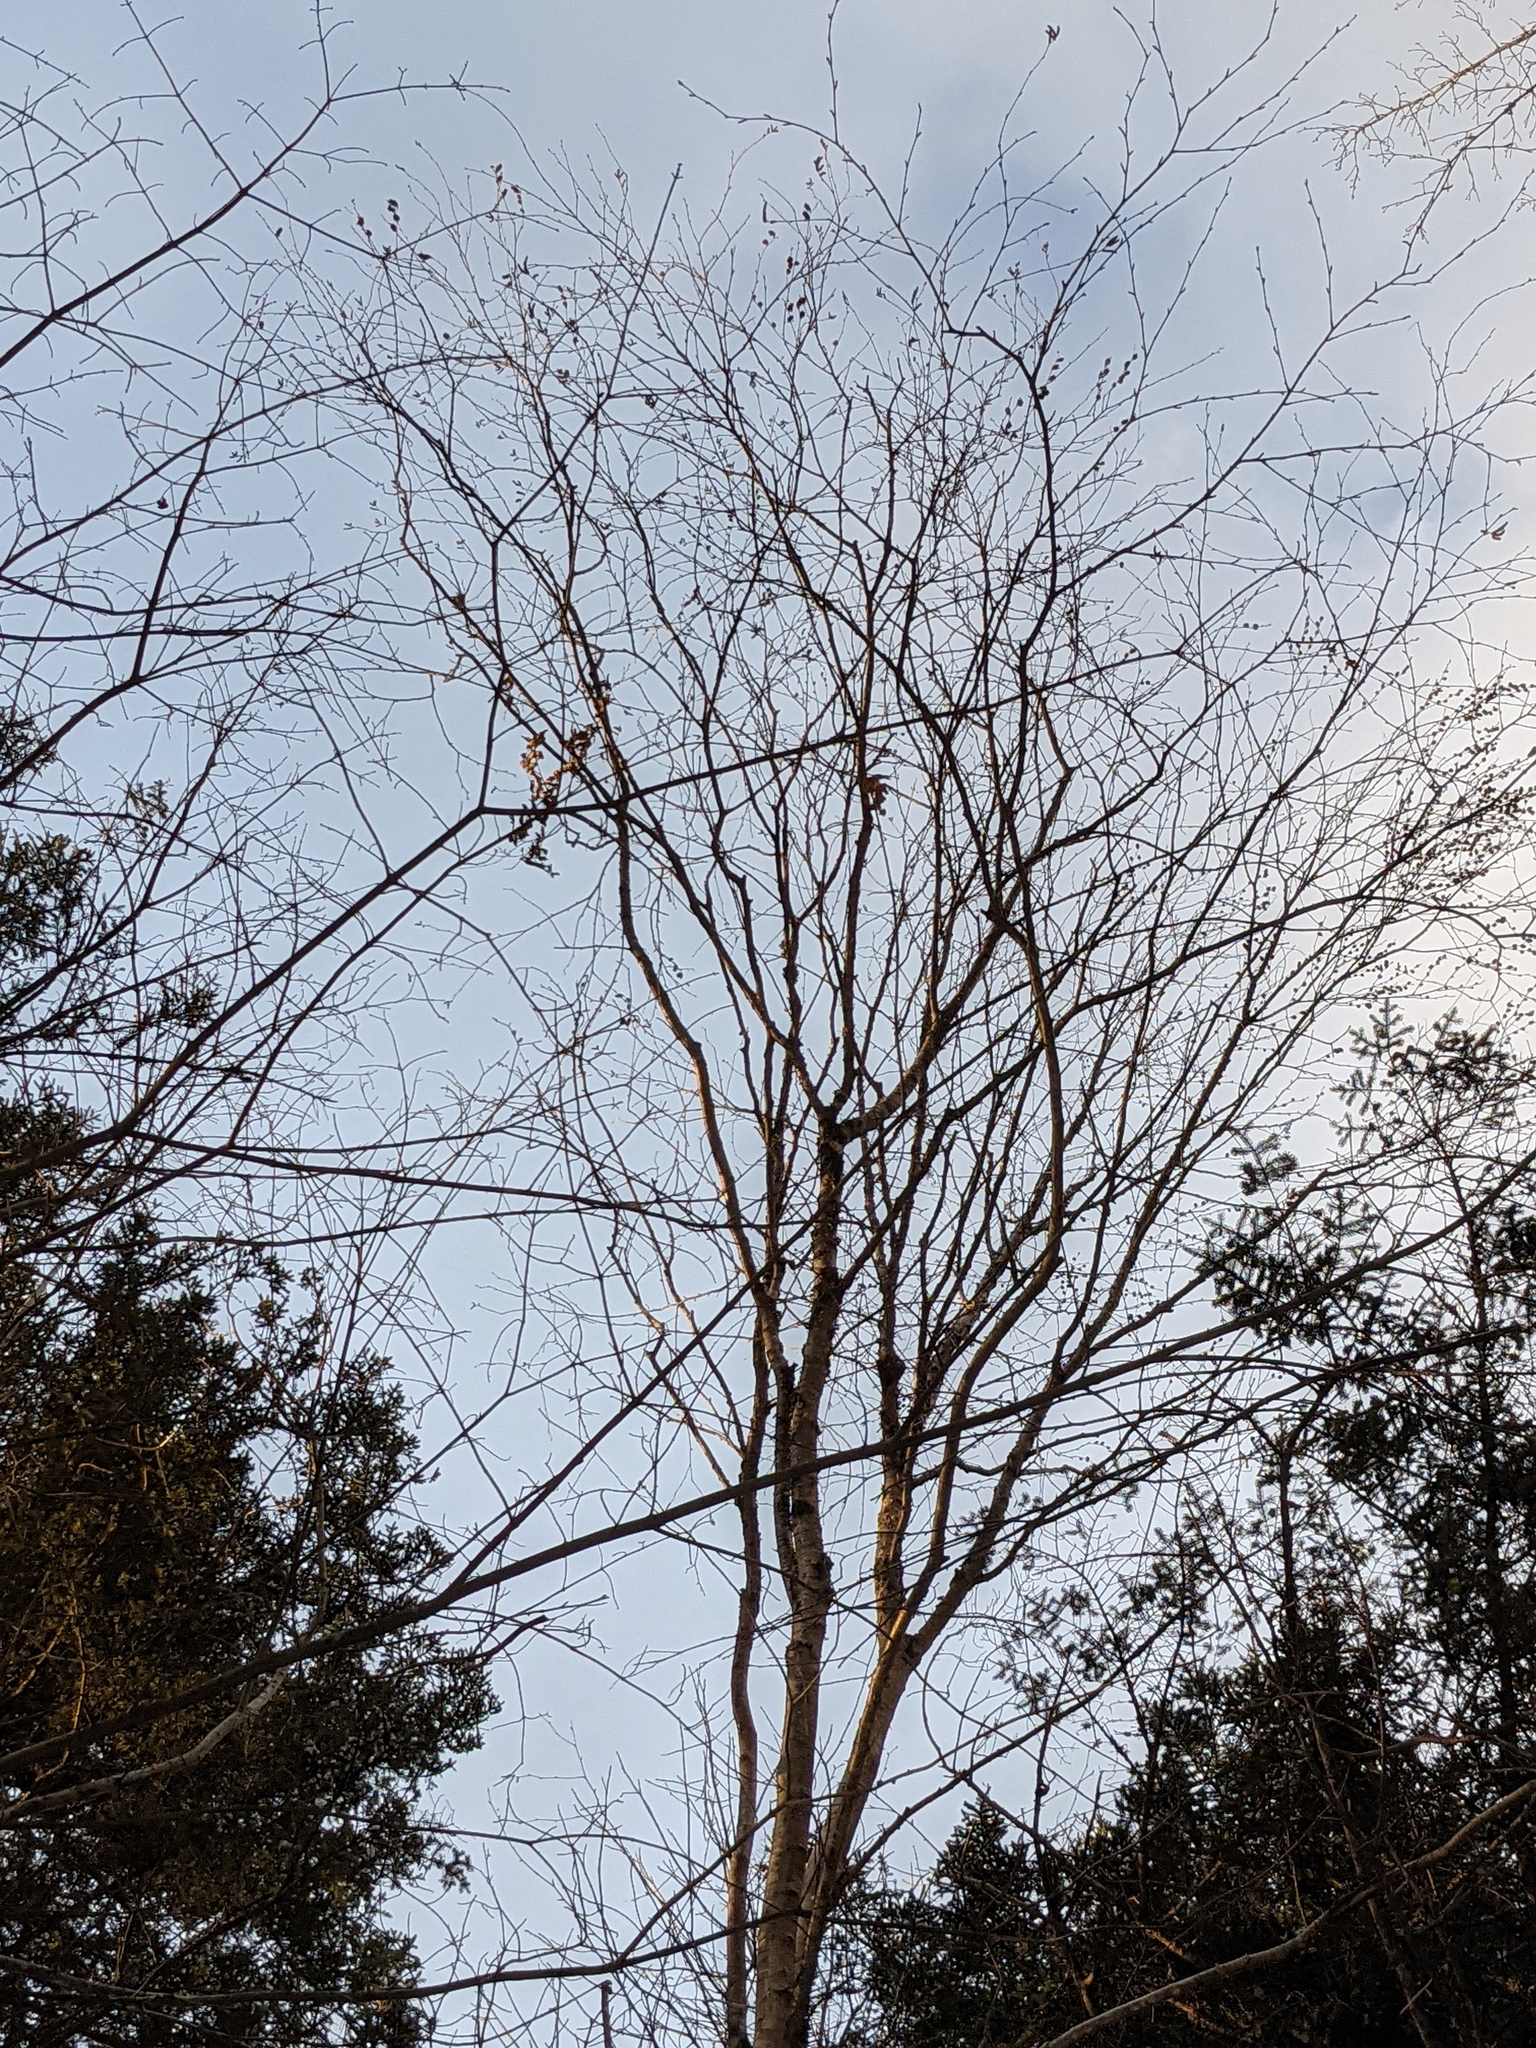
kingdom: Plantae
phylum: Tracheophyta
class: Magnoliopsida
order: Fagales
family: Betulaceae
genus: Betula
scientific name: Betula alleghaniensis
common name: Yellow birch
